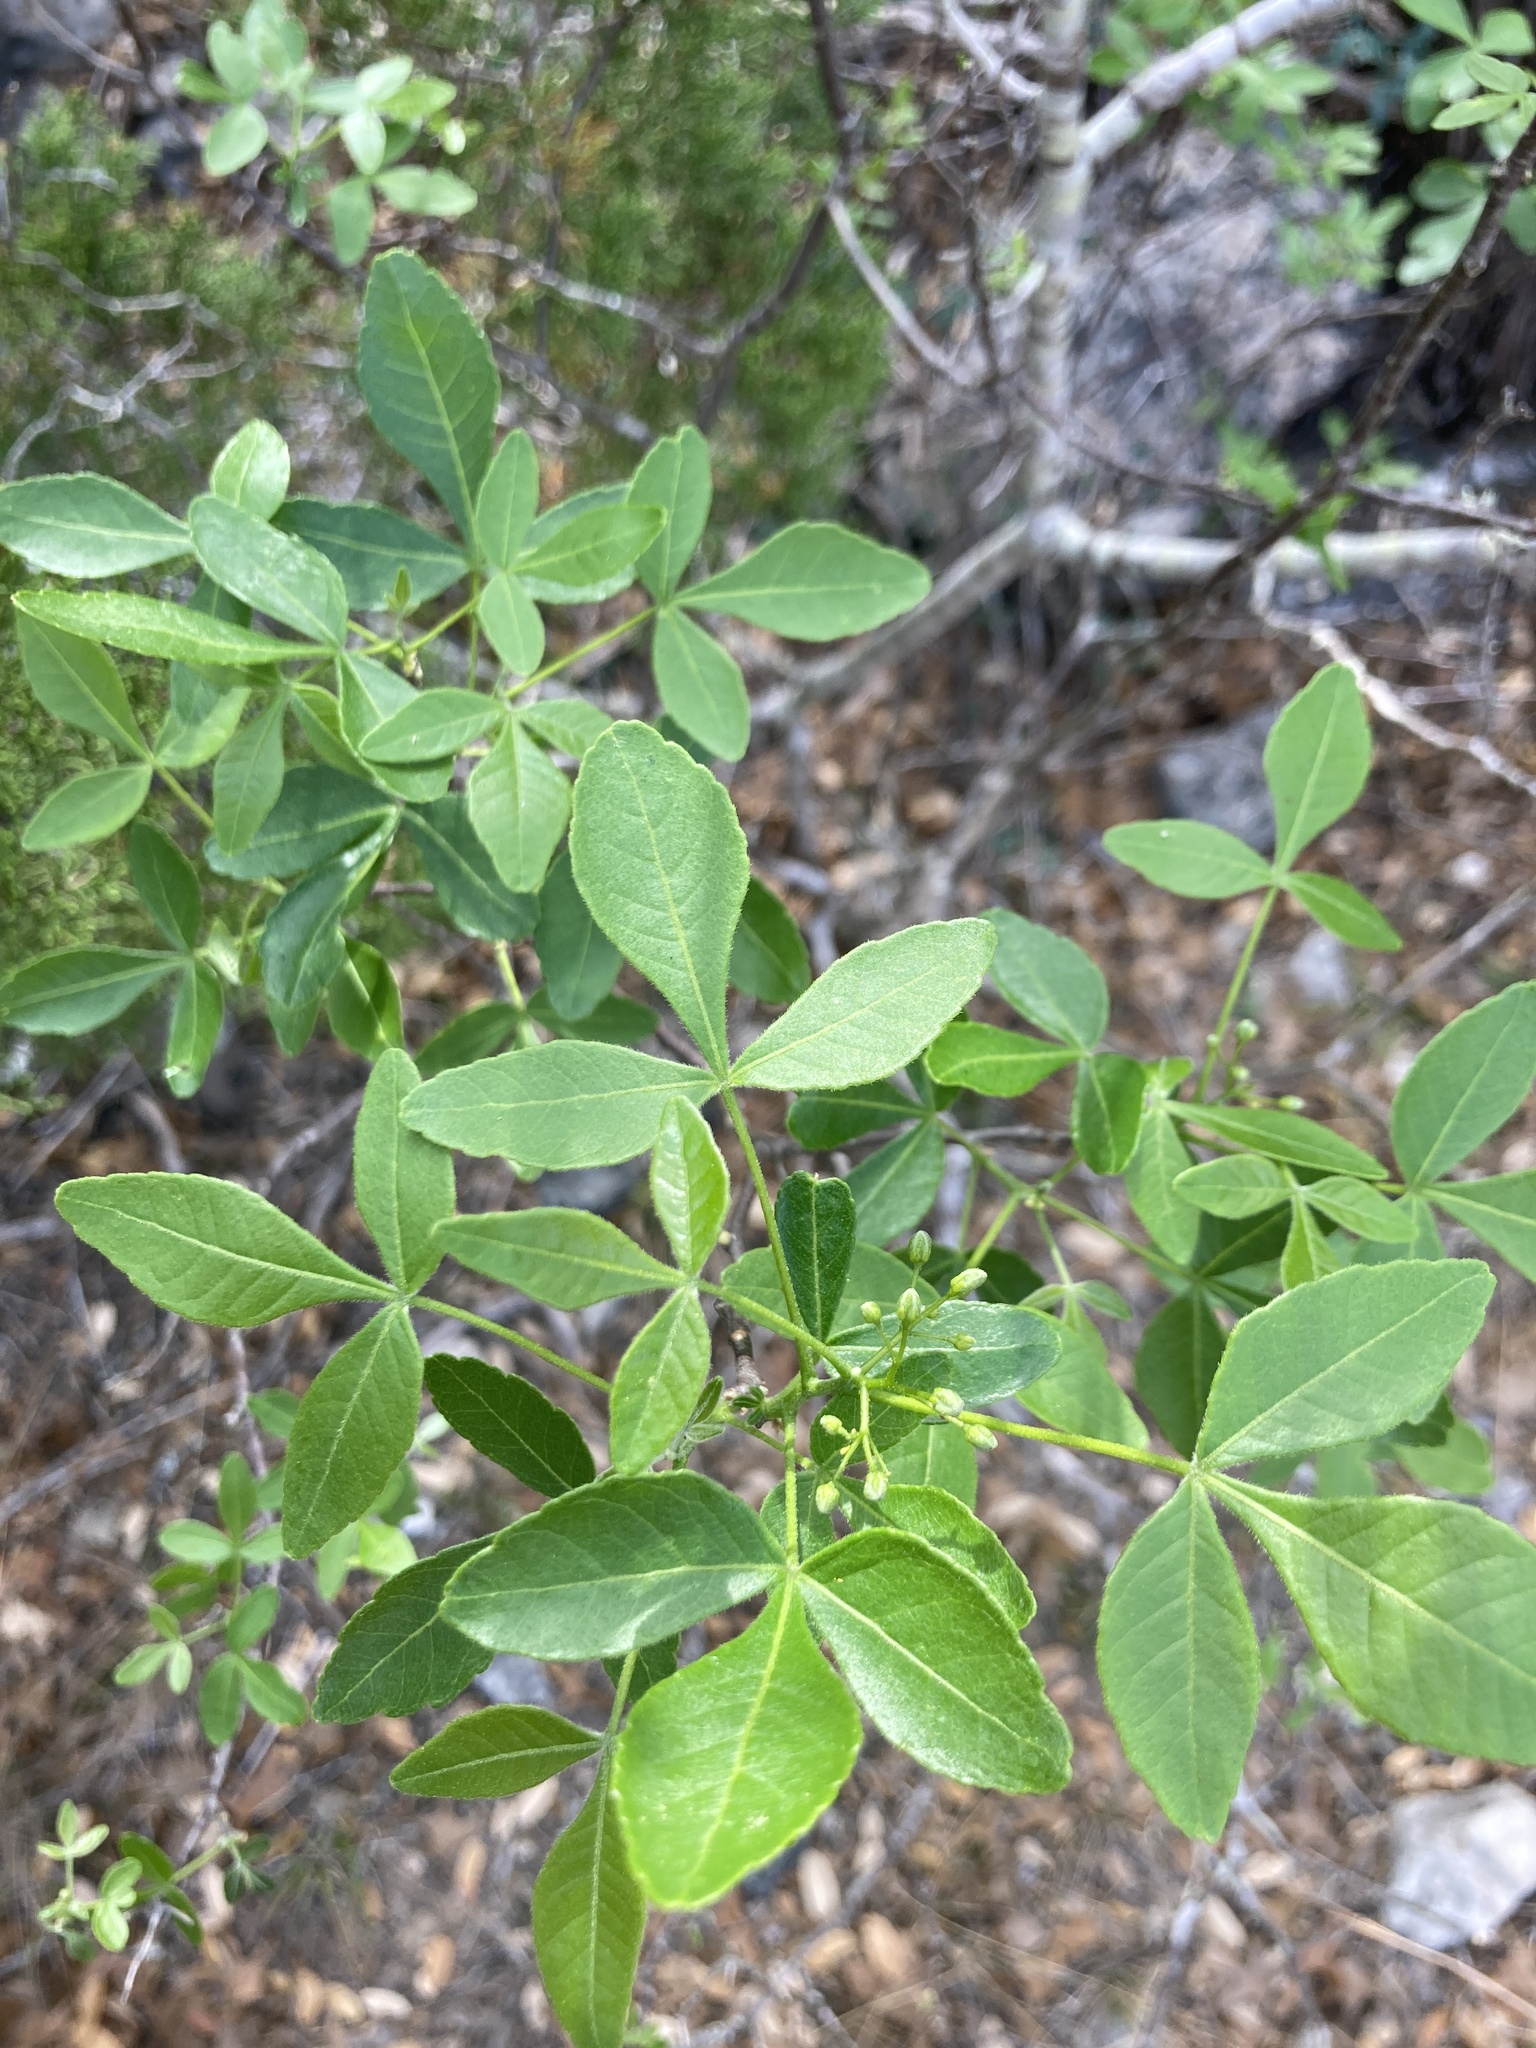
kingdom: Plantae
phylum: Tracheophyta
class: Magnoliopsida
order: Sapindales
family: Rutaceae
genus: Ptelea
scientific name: Ptelea trifoliata
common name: Common hop-tree
